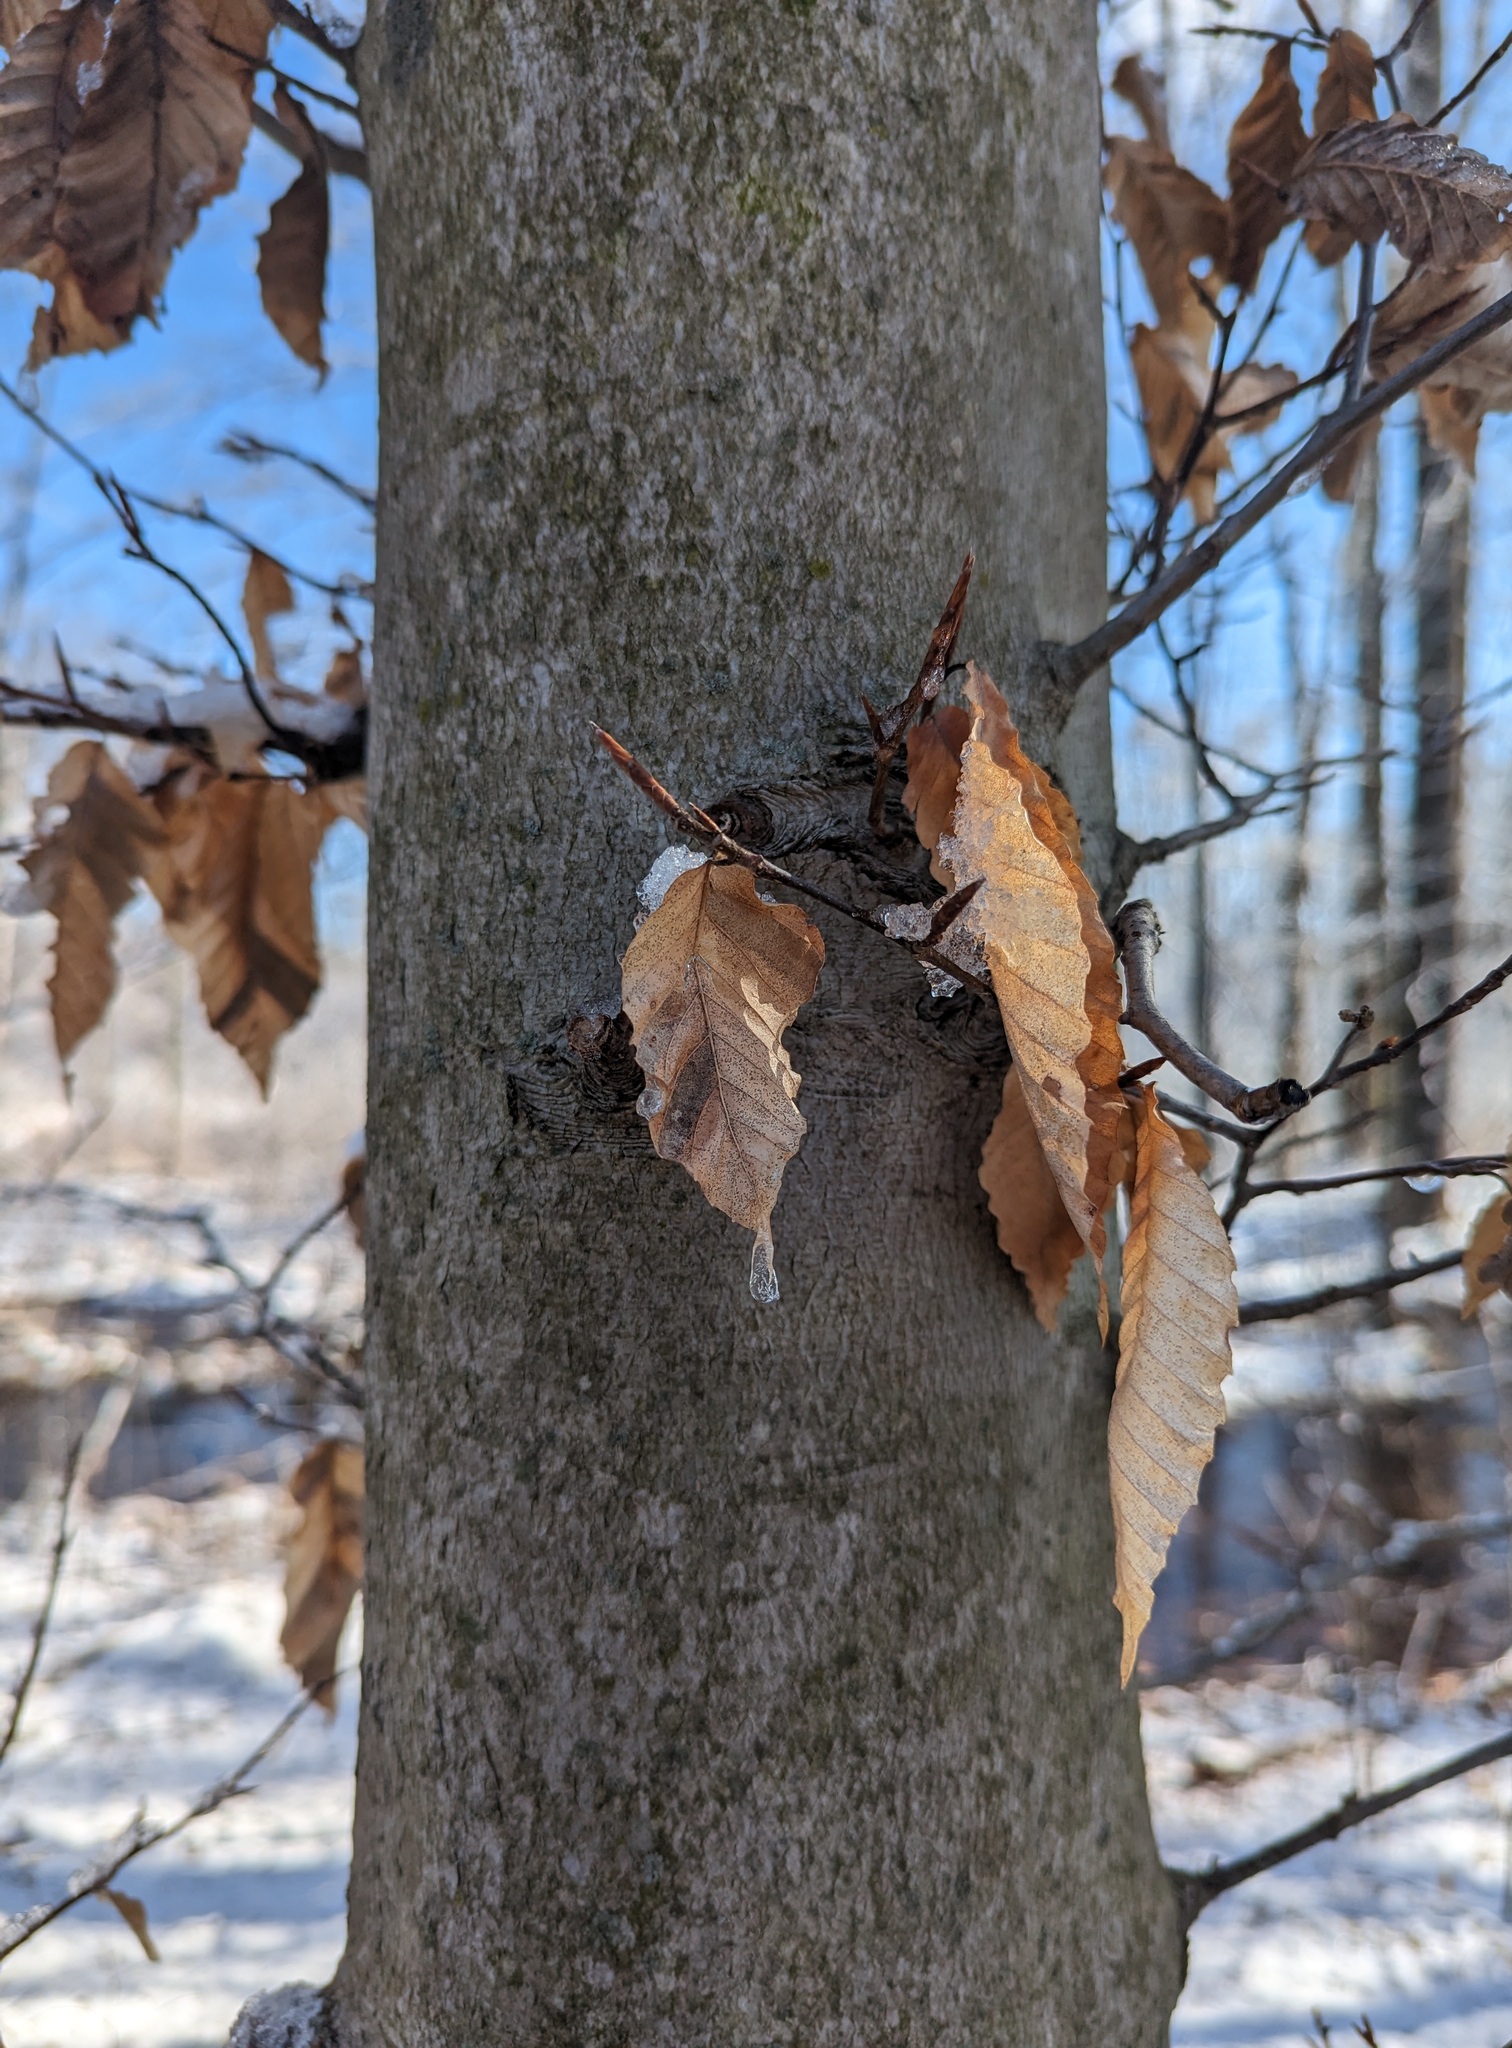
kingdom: Plantae
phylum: Tracheophyta
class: Magnoliopsida
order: Fagales
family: Fagaceae
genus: Fagus
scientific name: Fagus grandifolia
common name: American beech
